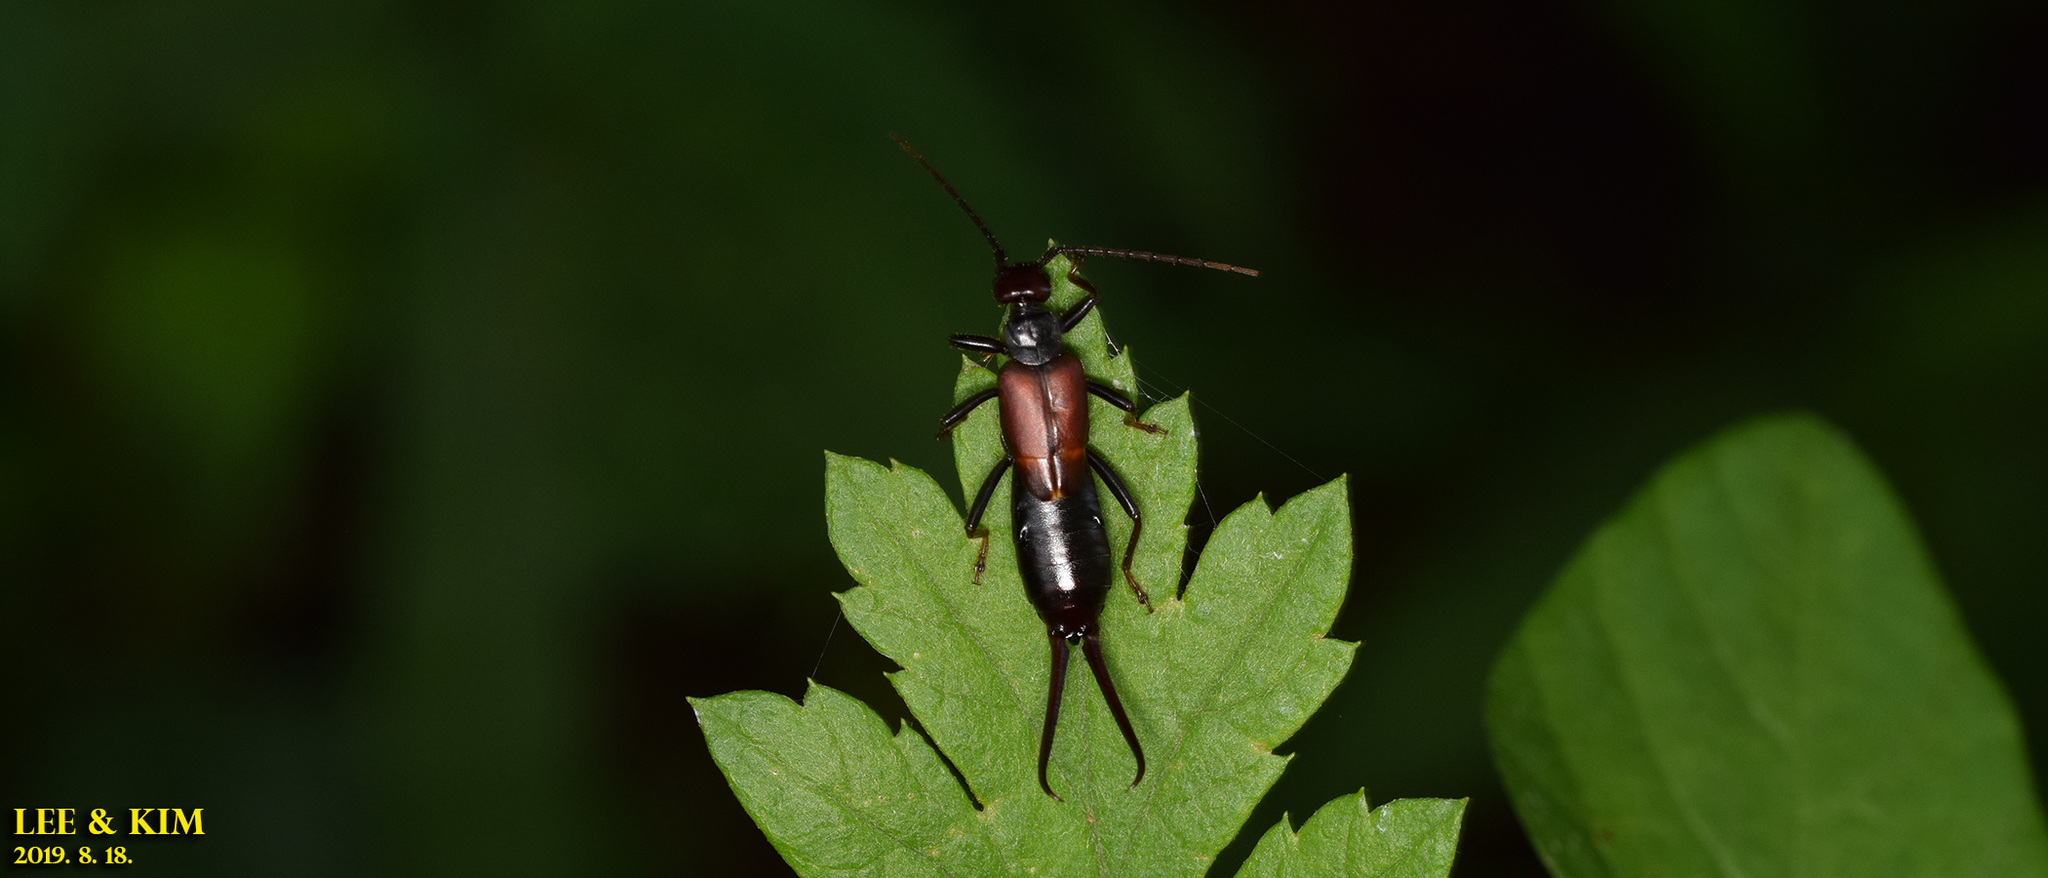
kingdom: Animalia
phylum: Arthropoda
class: Insecta
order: Dermaptera
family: Forficulidae
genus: Timomenus
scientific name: Timomenus komarovi
